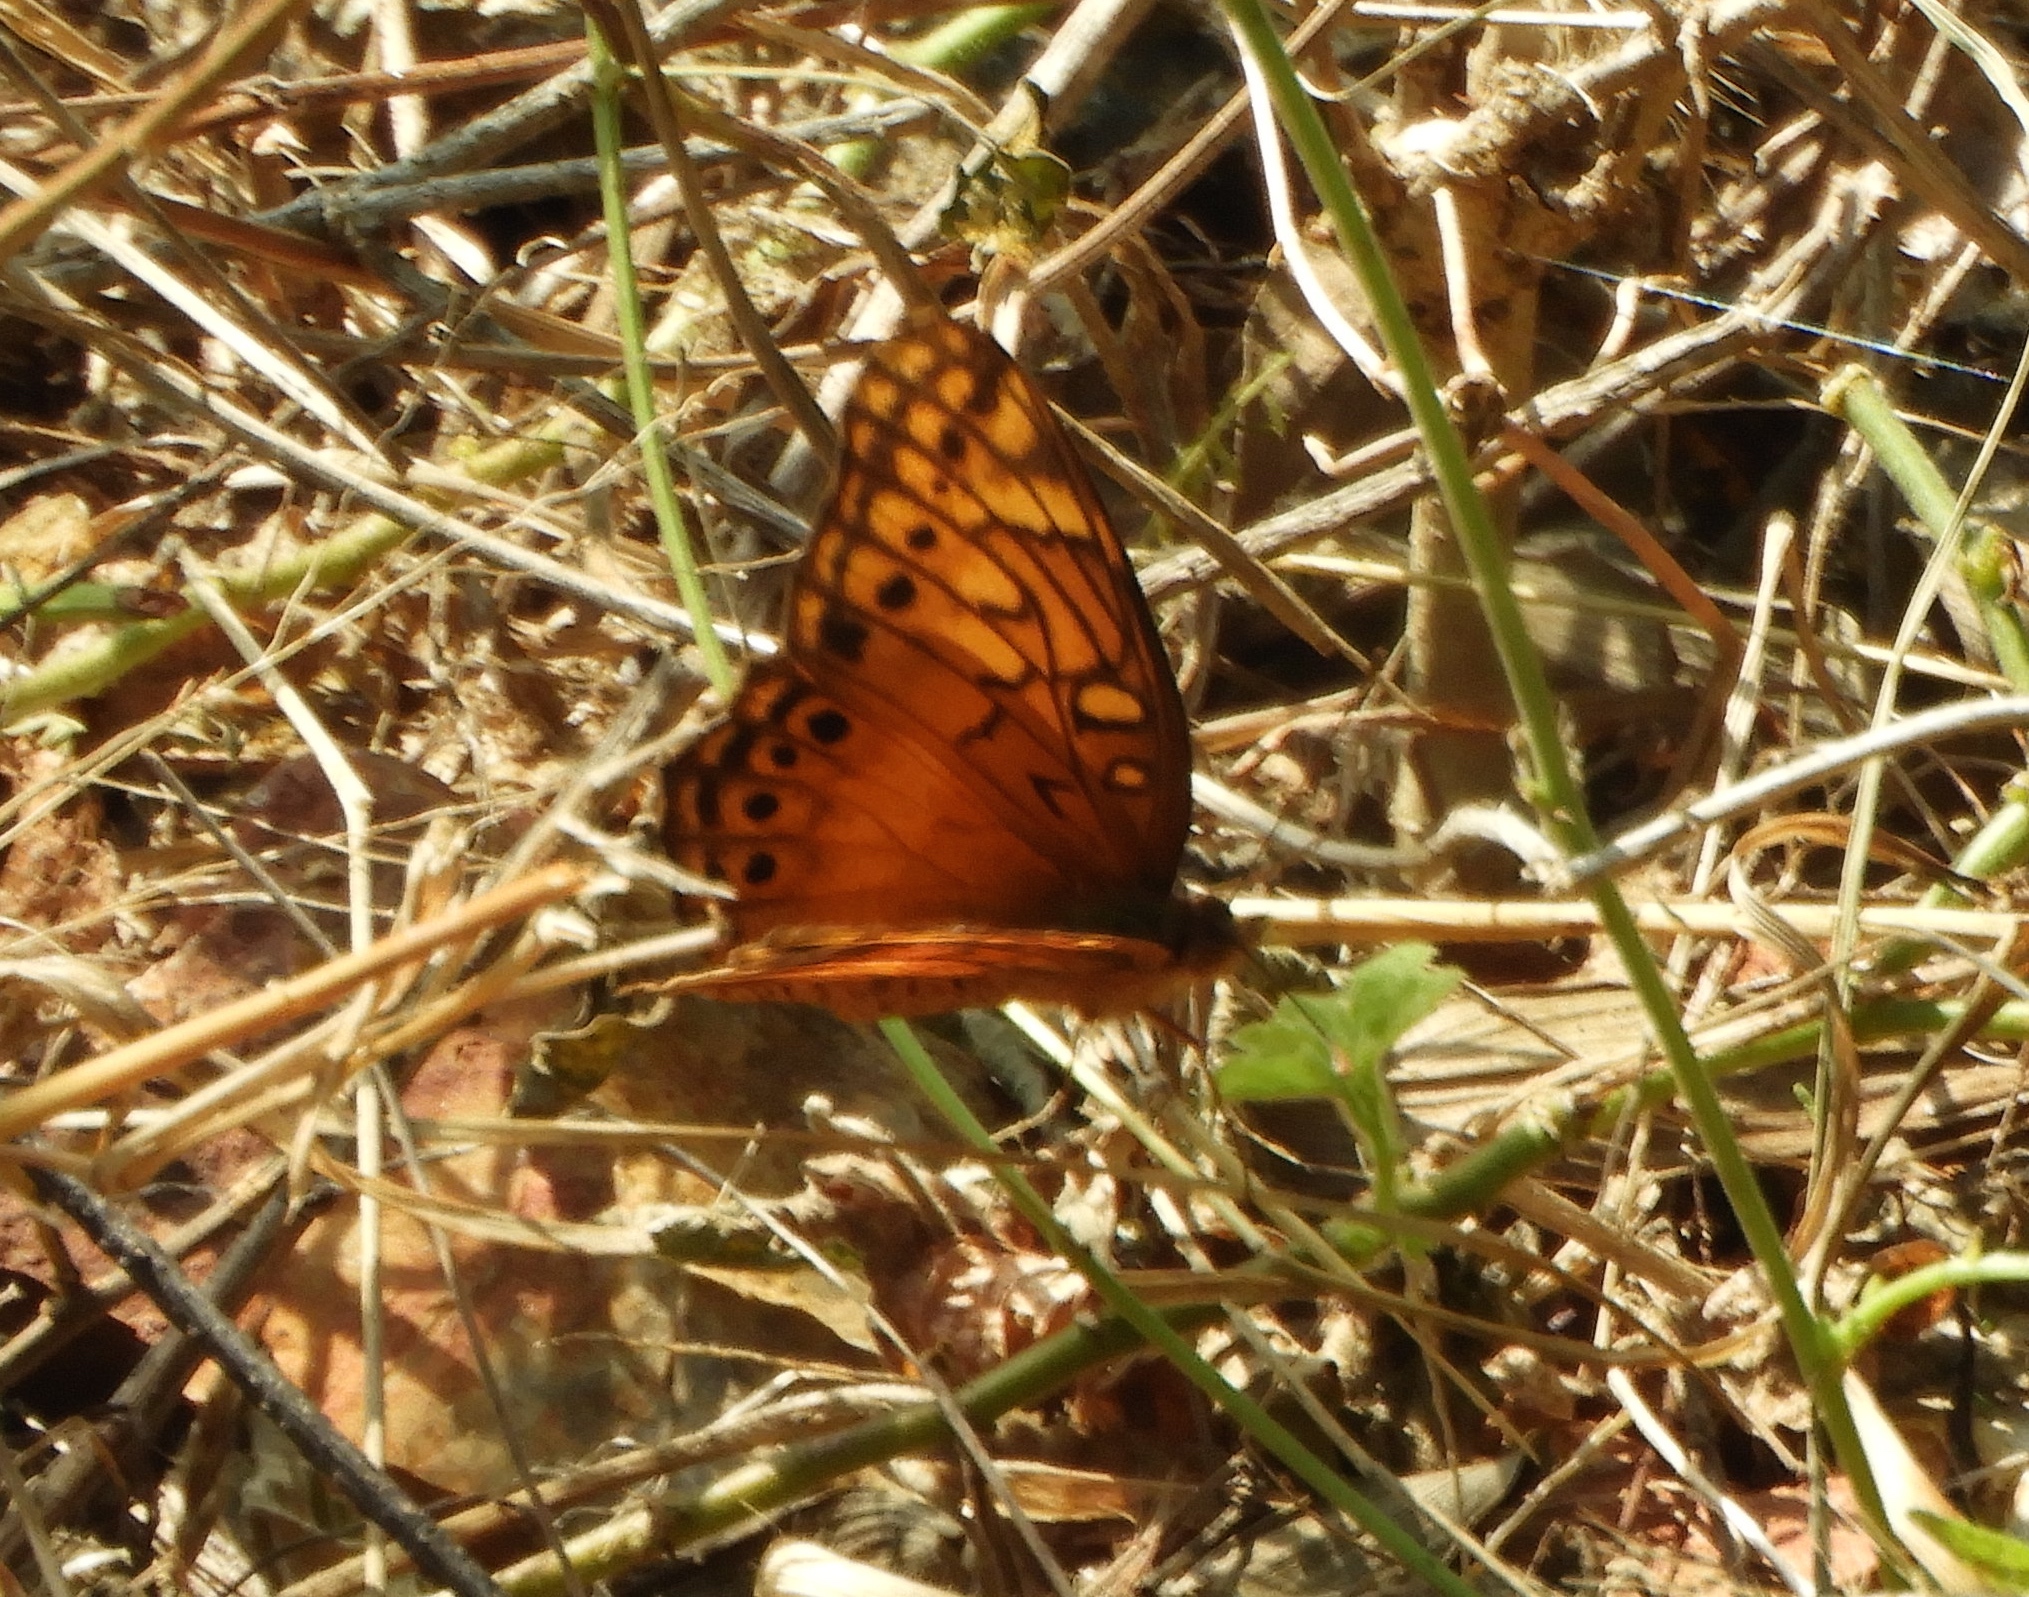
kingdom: Animalia
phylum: Arthropoda
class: Insecta
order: Lepidoptera
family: Nymphalidae
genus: Euptoieta
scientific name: Euptoieta hegesia
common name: Mexican fritillary
